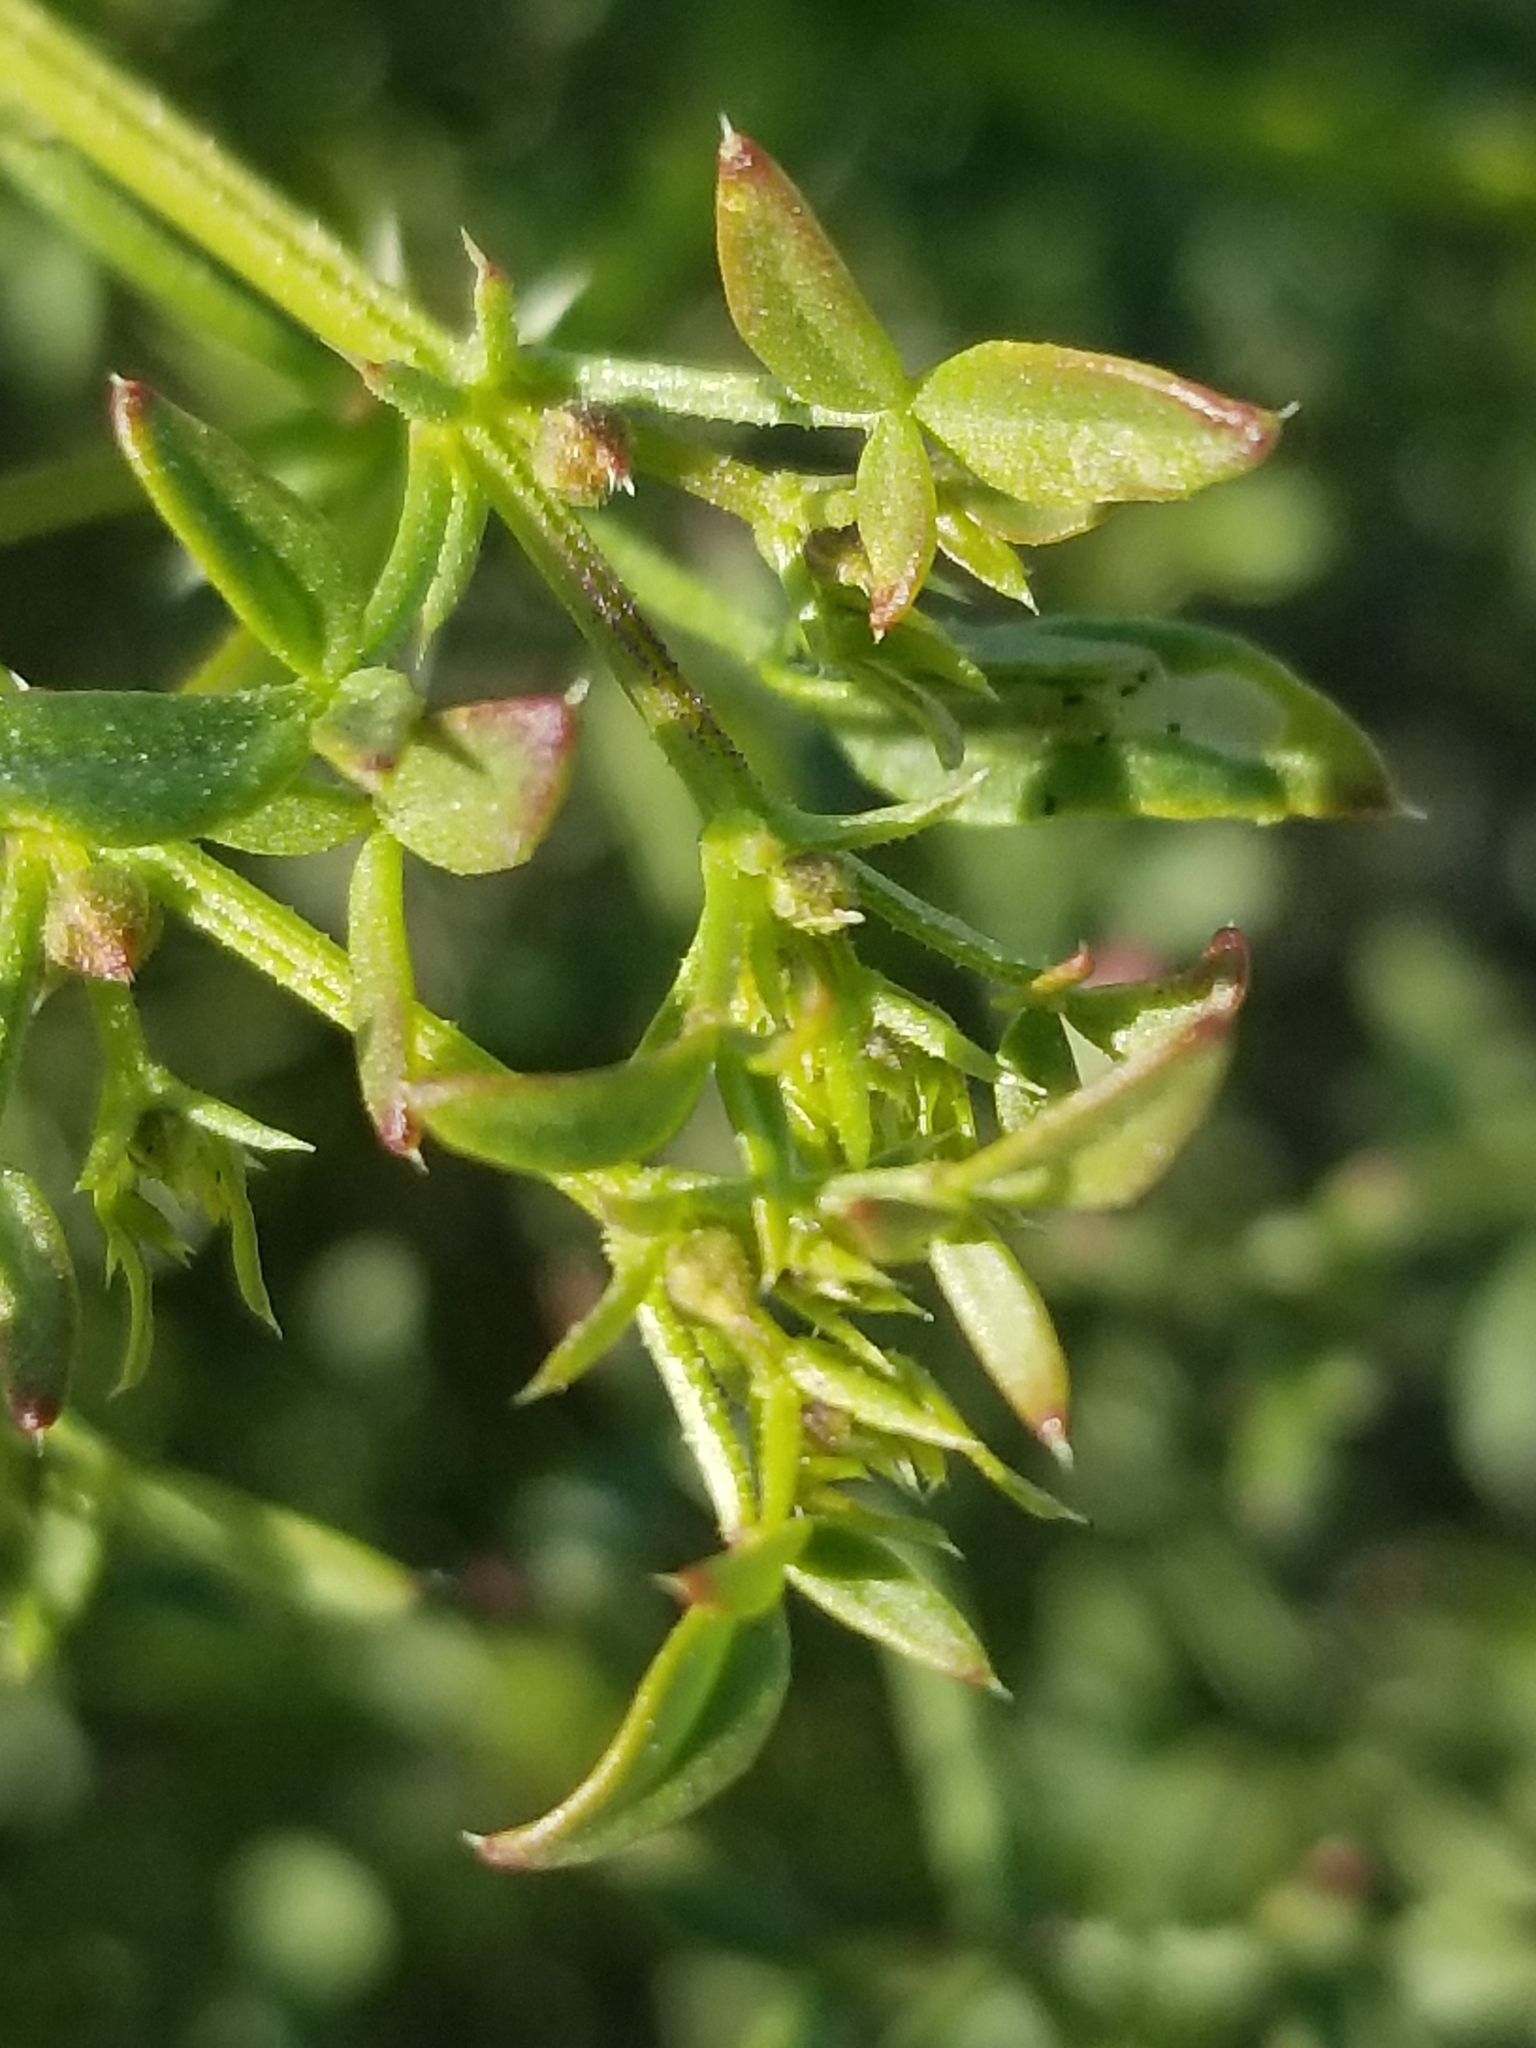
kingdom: Plantae
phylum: Tracheophyta
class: Magnoliopsida
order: Zygophyllales
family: Zygophyllaceae
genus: Fagonia
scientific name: Fagonia laevis
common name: California fagonbush
